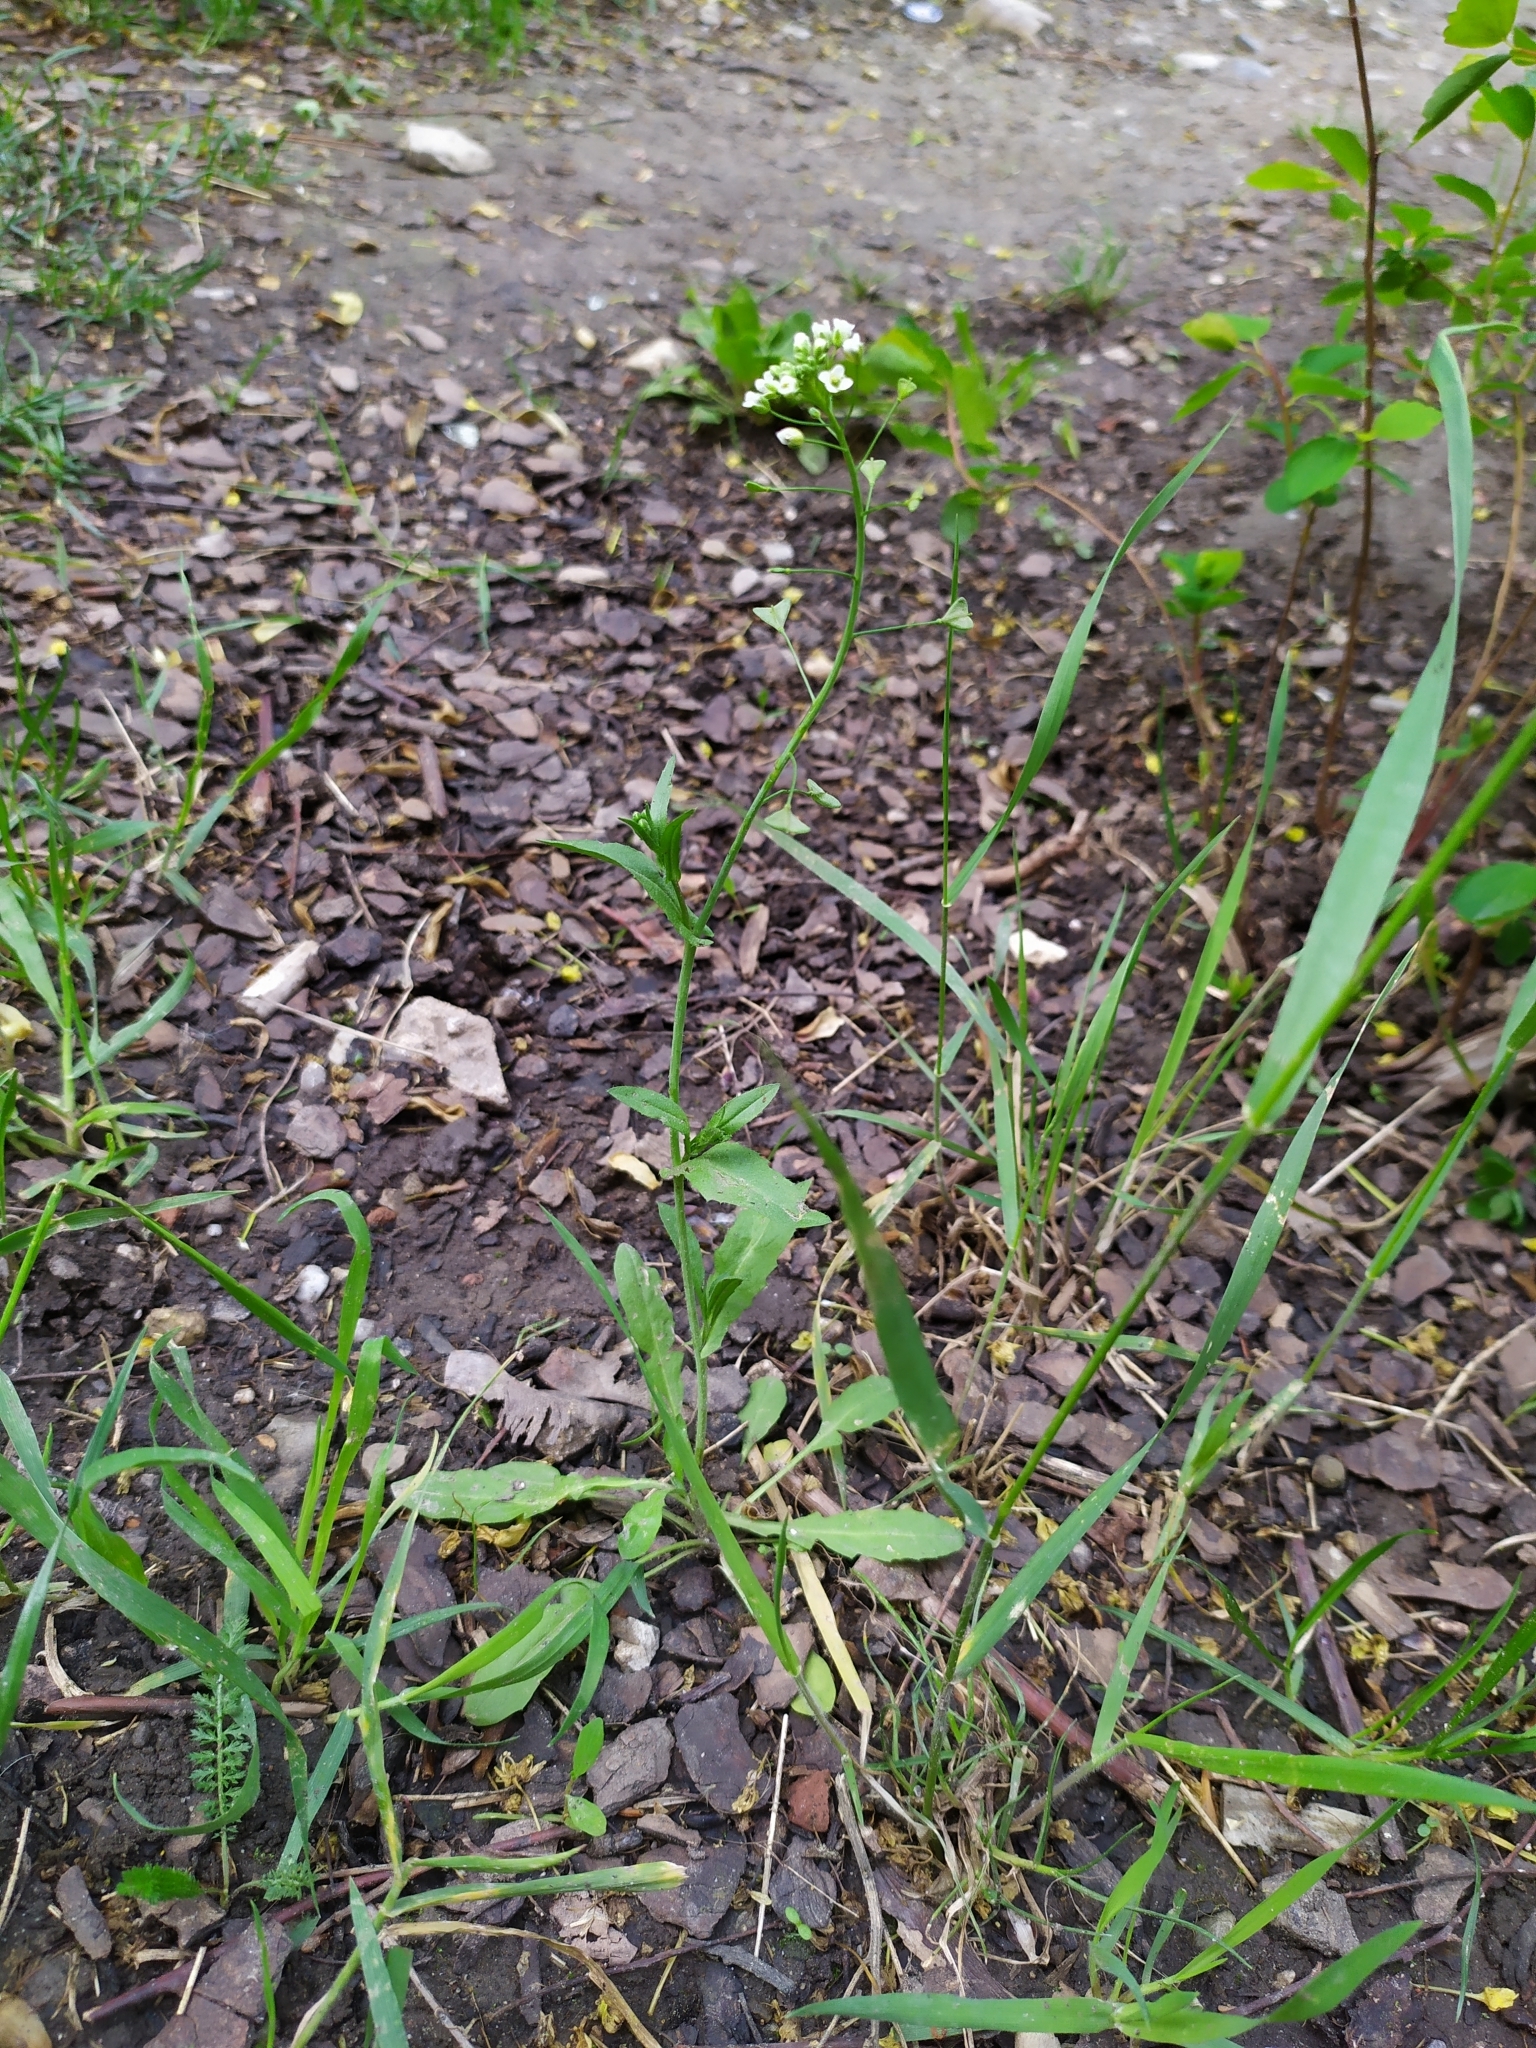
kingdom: Plantae
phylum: Tracheophyta
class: Magnoliopsida
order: Brassicales
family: Brassicaceae
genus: Capsella
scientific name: Capsella bursa-pastoris
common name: Shepherd's purse
